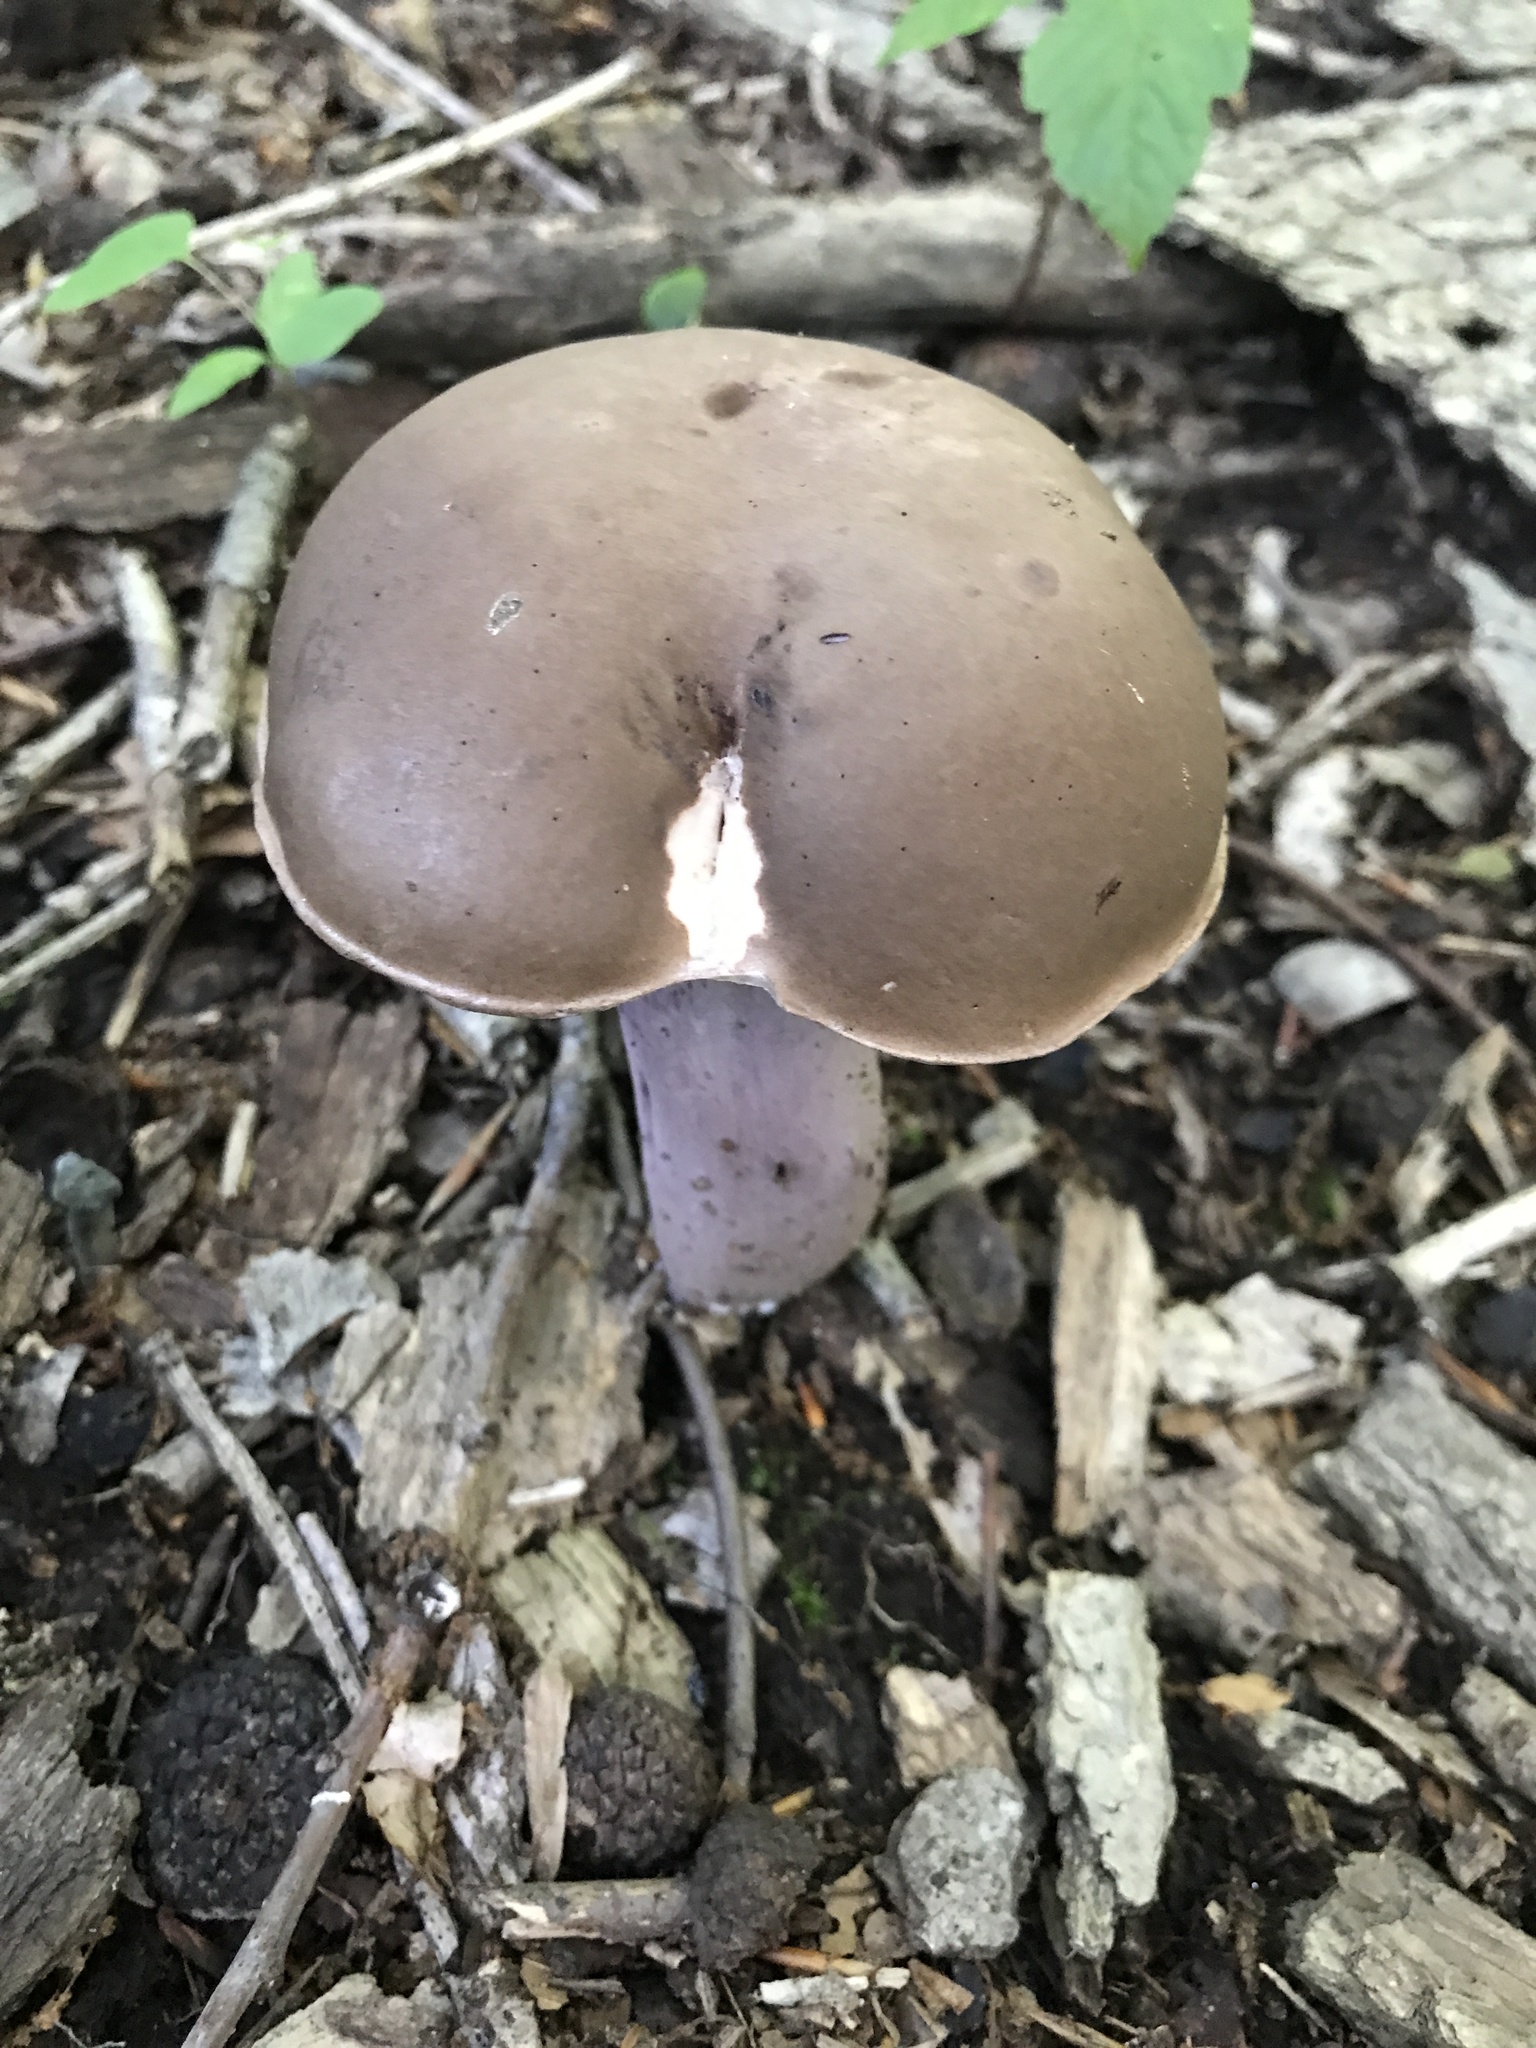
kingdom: Fungi
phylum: Basidiomycota
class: Agaricomycetes
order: Boletales
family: Boletaceae
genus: Tylopilus
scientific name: Tylopilus plumbeoviolaceus
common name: Violet gray bolete
